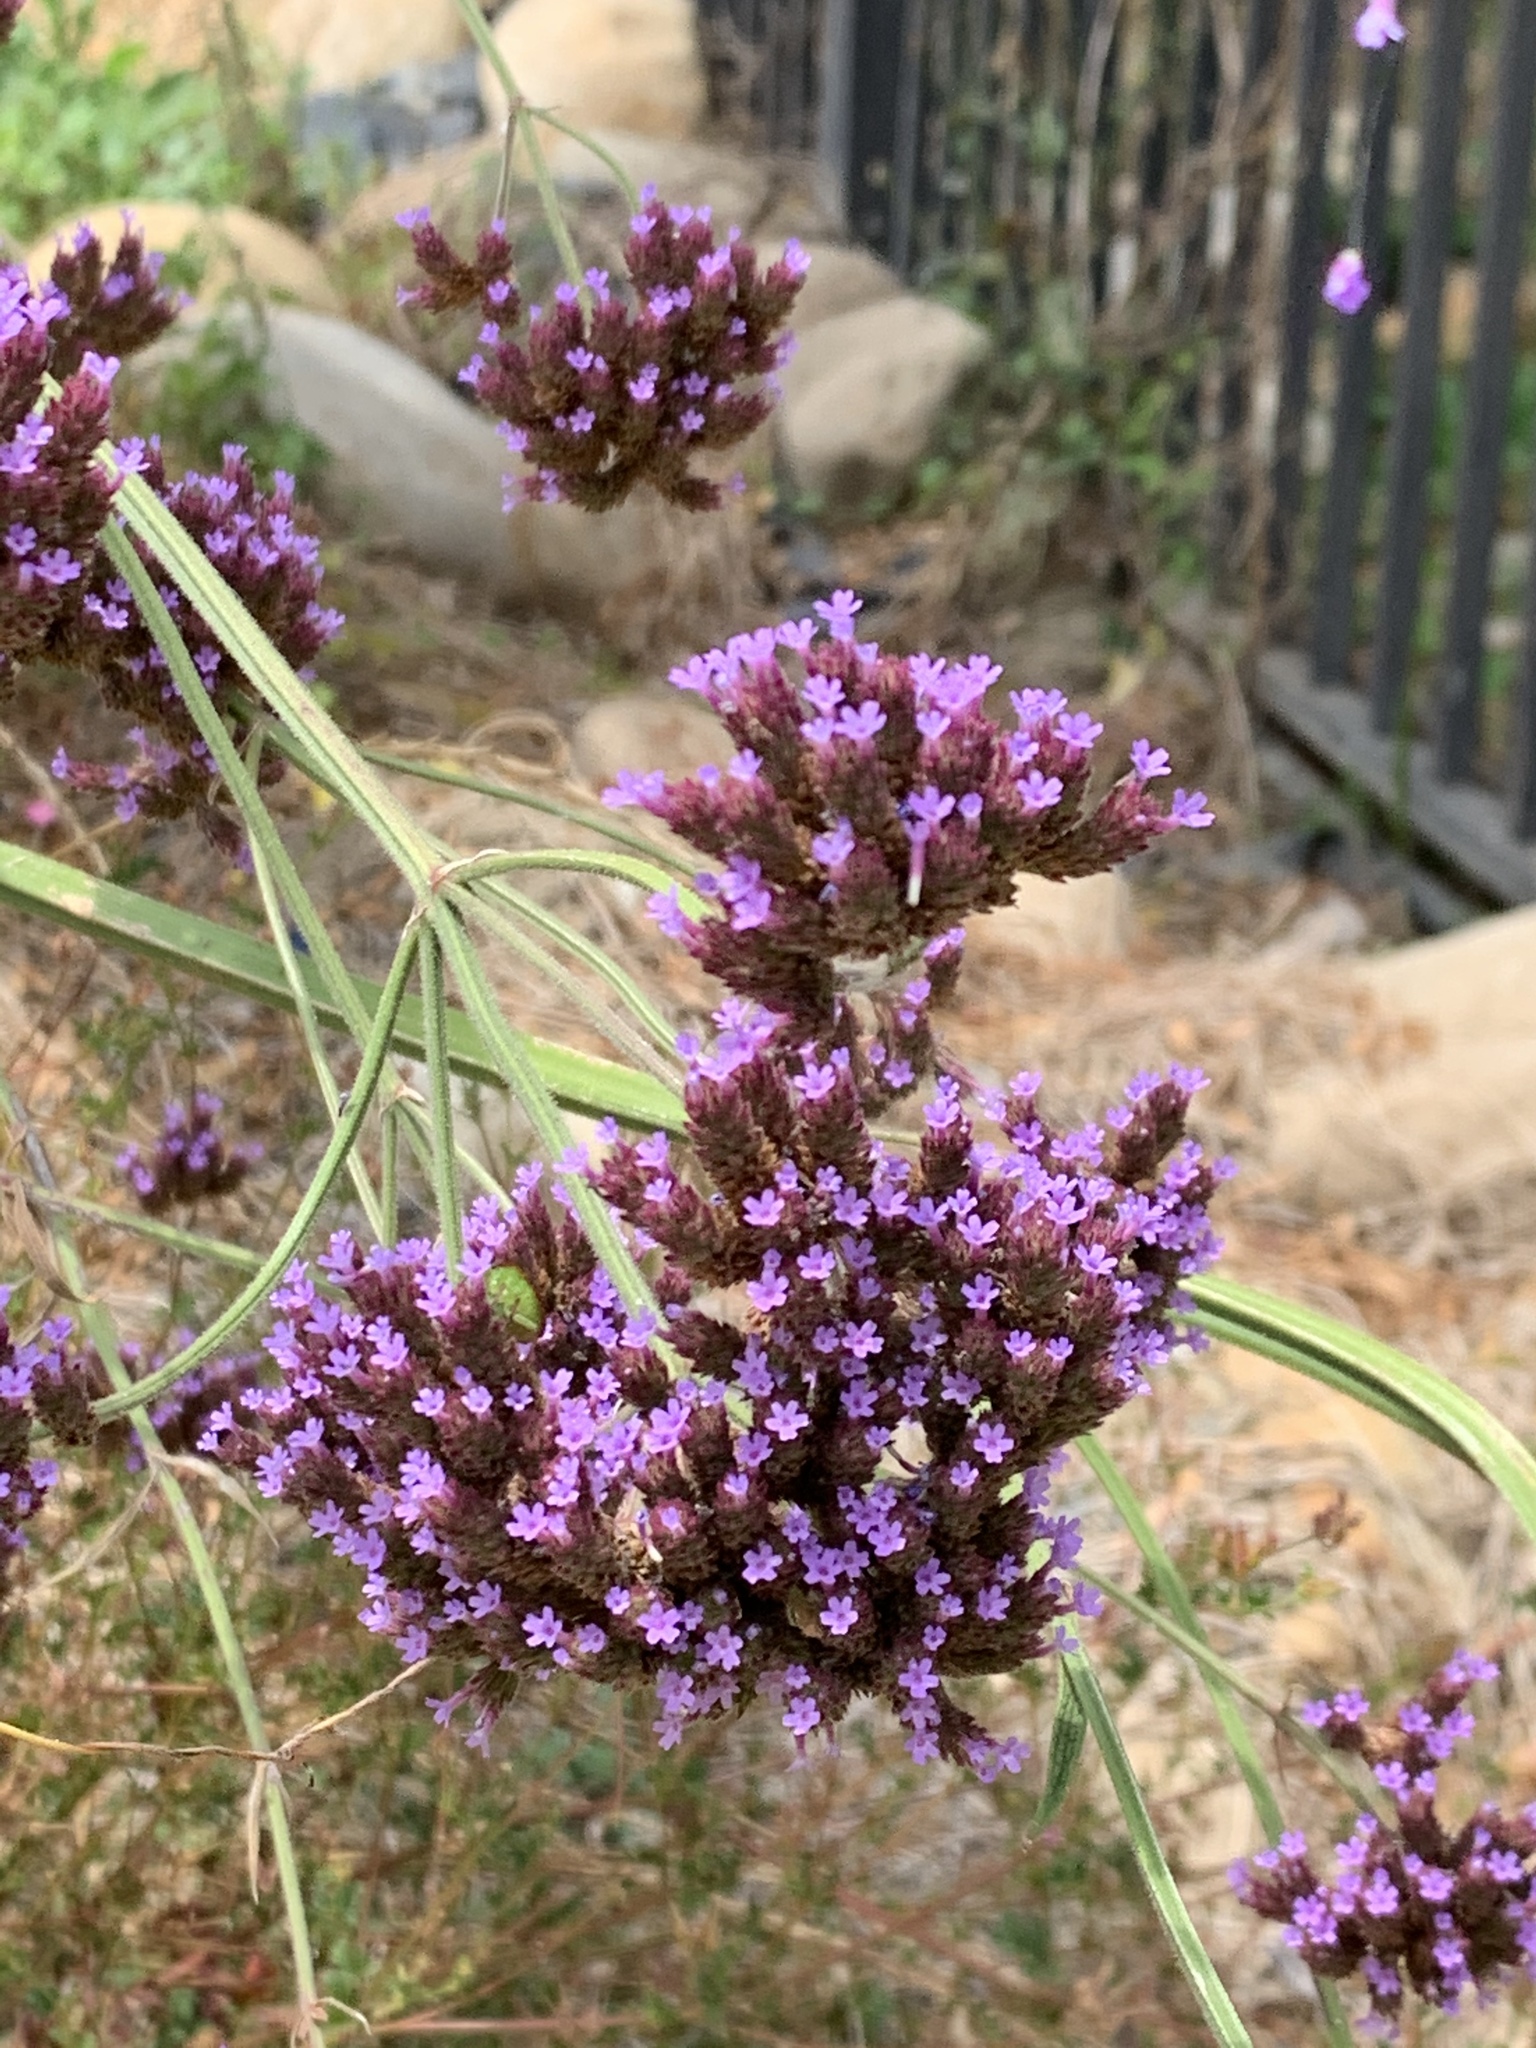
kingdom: Plantae
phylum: Tracheophyta
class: Magnoliopsida
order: Lamiales
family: Verbenaceae
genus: Verbena
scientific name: Verbena bonariensis
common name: Purpletop vervain
